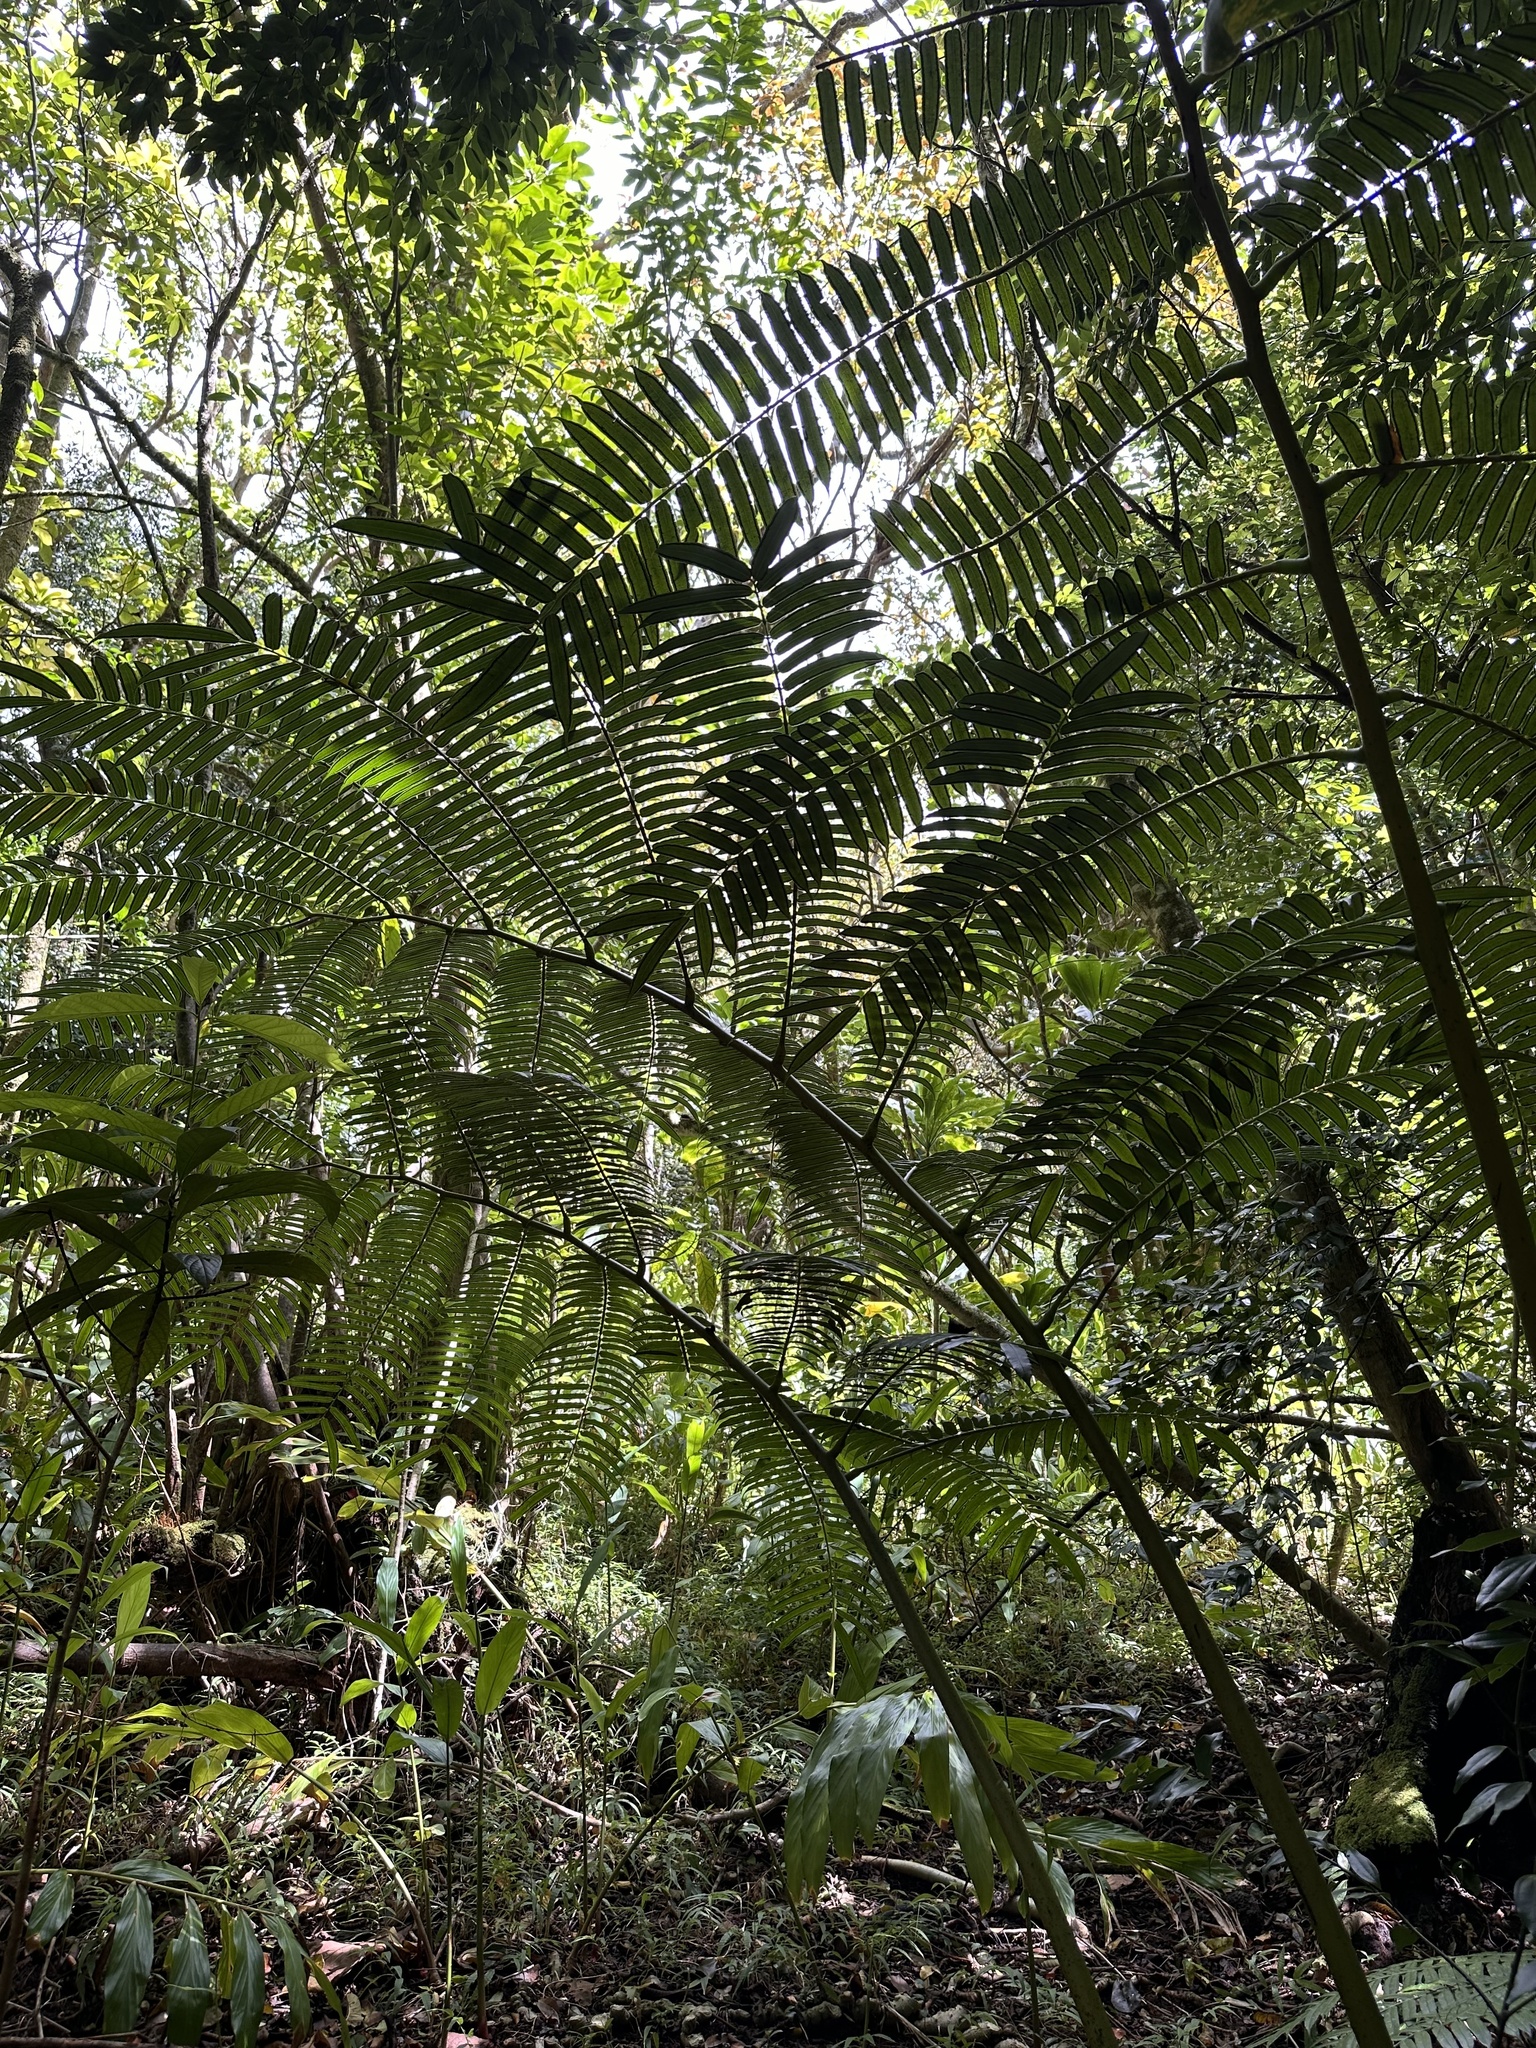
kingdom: Plantae
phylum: Tracheophyta
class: Polypodiopsida
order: Marattiales
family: Marattiaceae
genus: Angiopteris
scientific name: Angiopteris evecta
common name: Mule's-foot fern
